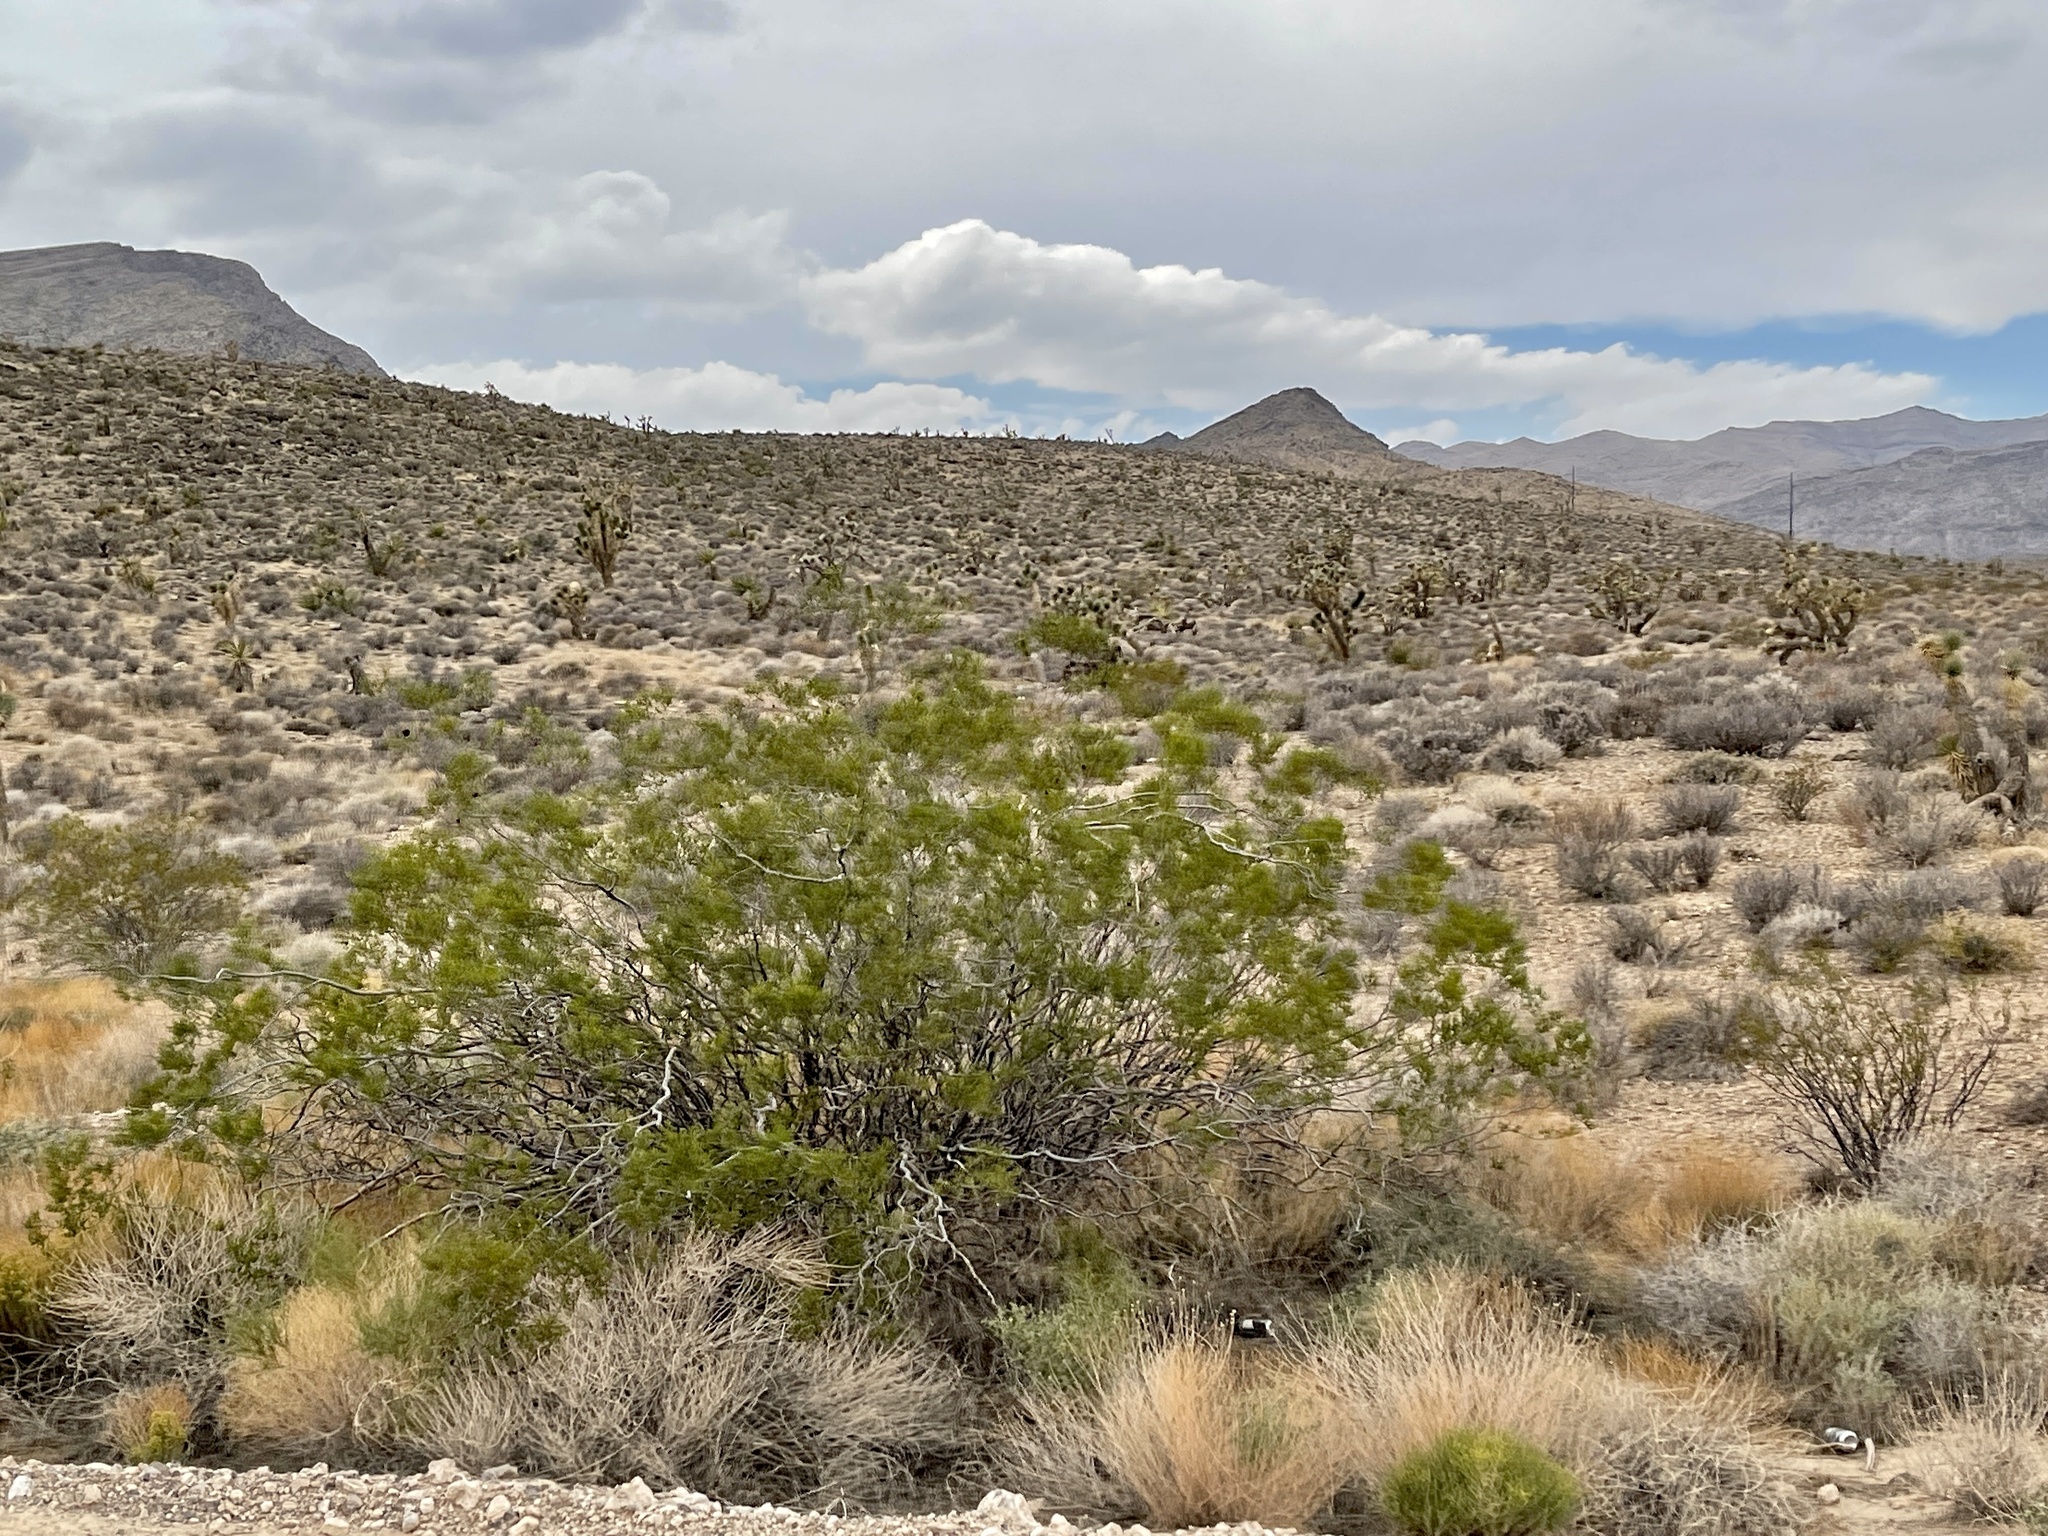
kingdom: Plantae
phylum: Tracheophyta
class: Magnoliopsida
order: Zygophyllales
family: Zygophyllaceae
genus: Larrea
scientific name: Larrea tridentata
